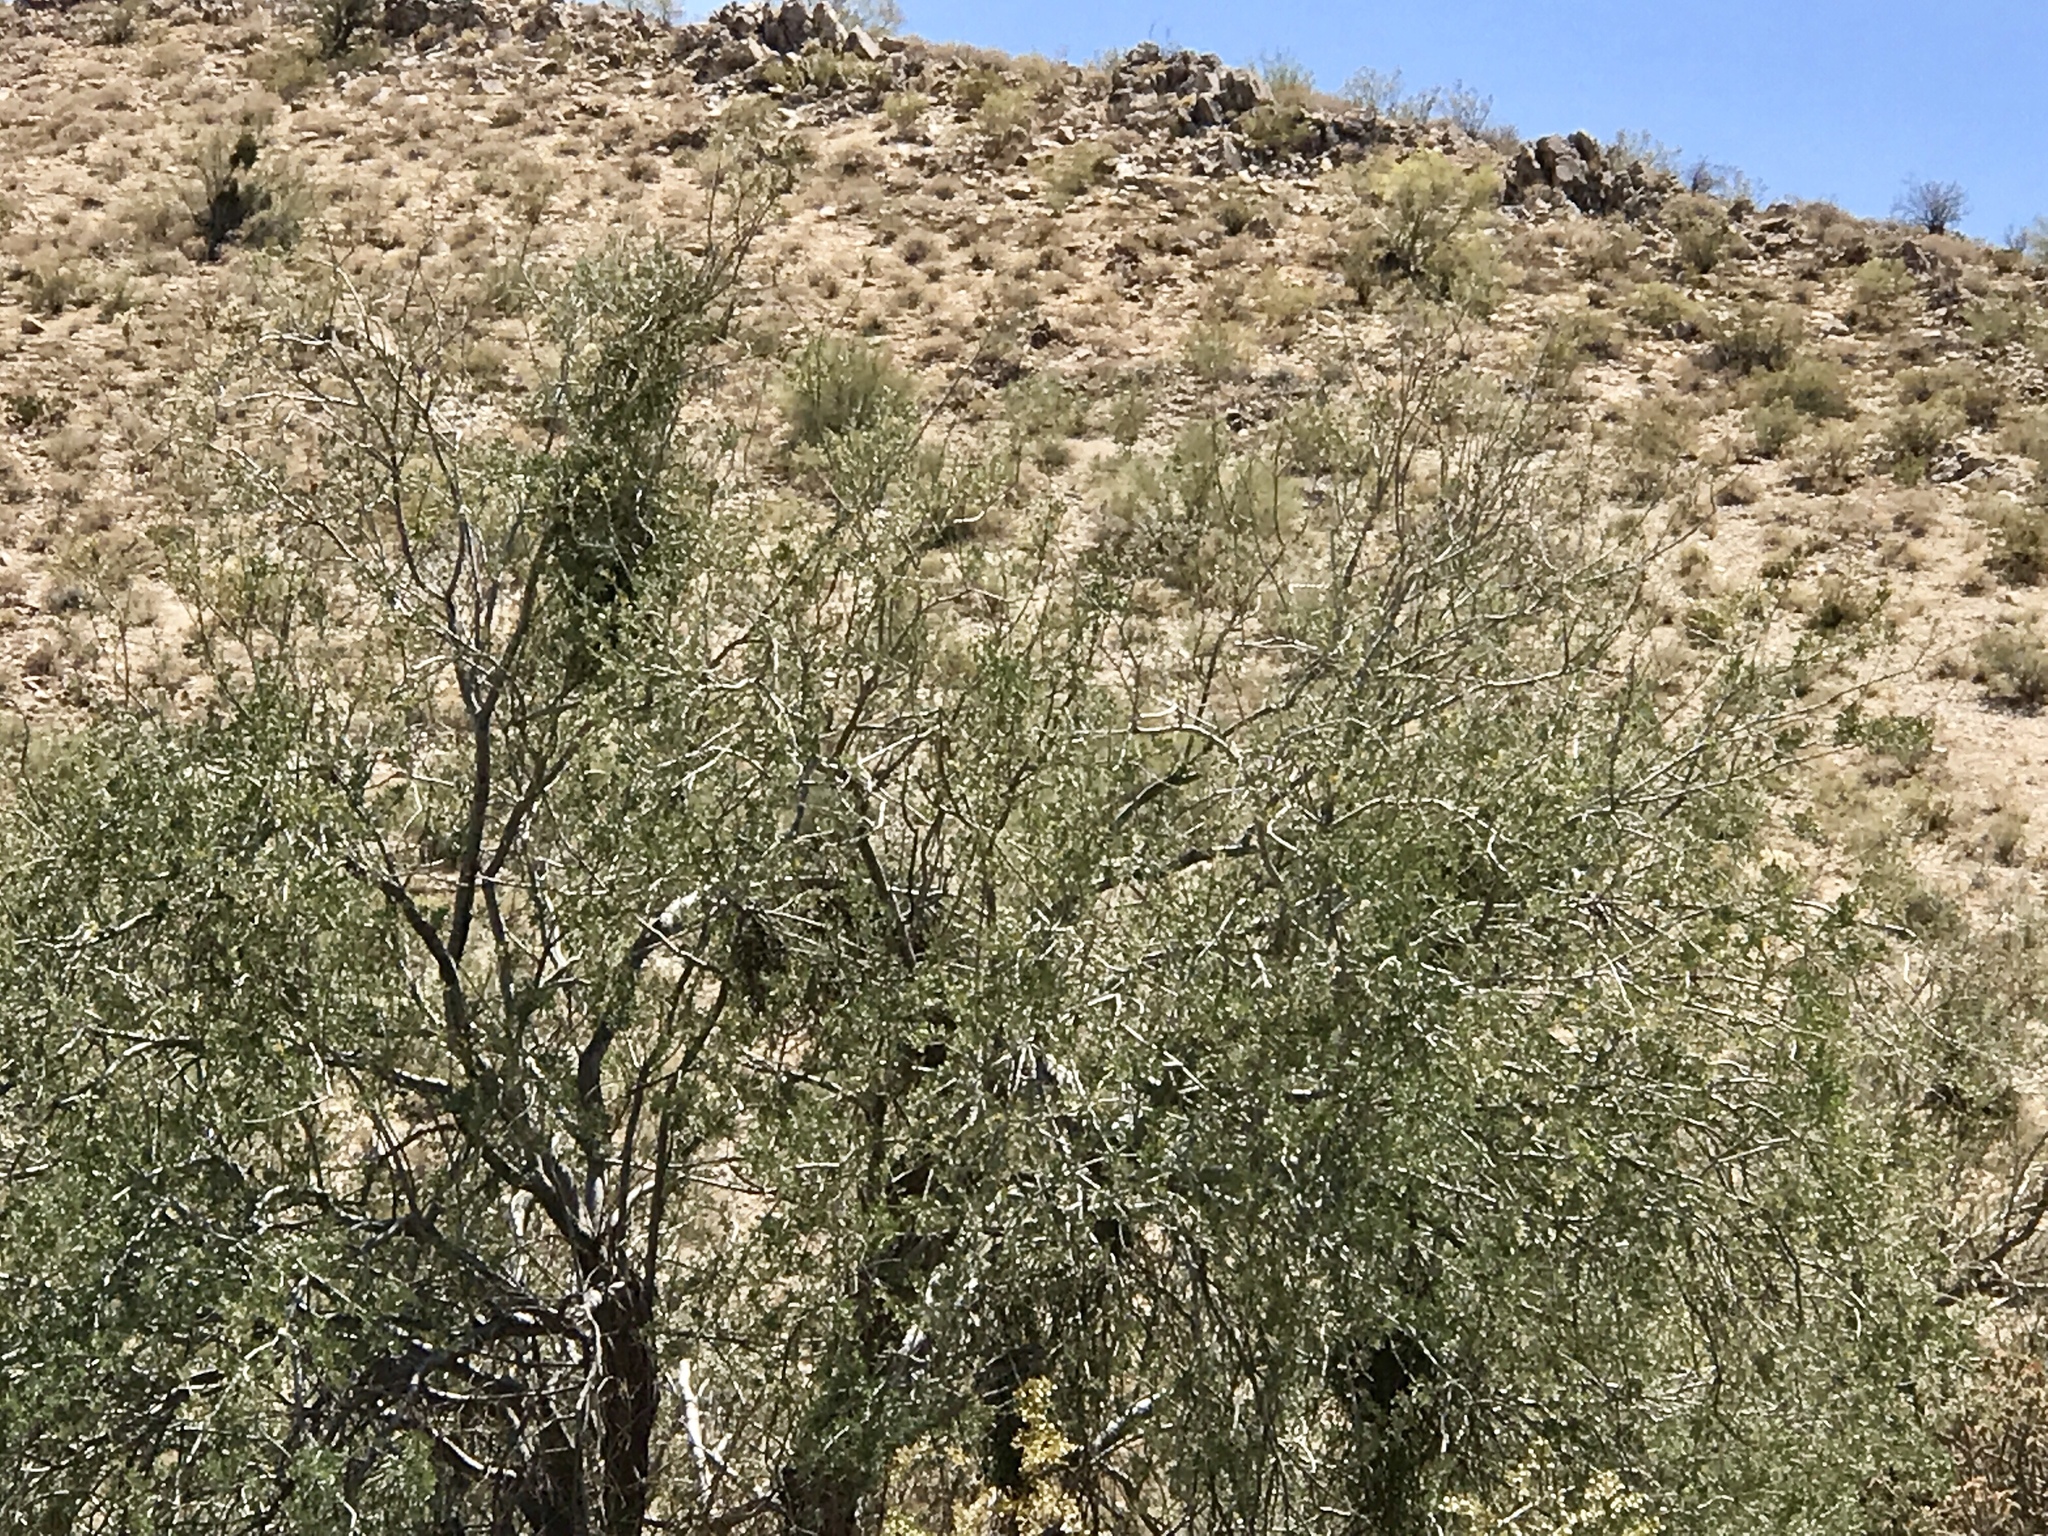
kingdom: Plantae
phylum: Tracheophyta
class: Magnoliopsida
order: Fabales
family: Fabaceae
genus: Parkinsonia
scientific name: Parkinsonia florida
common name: Blue paloverde
